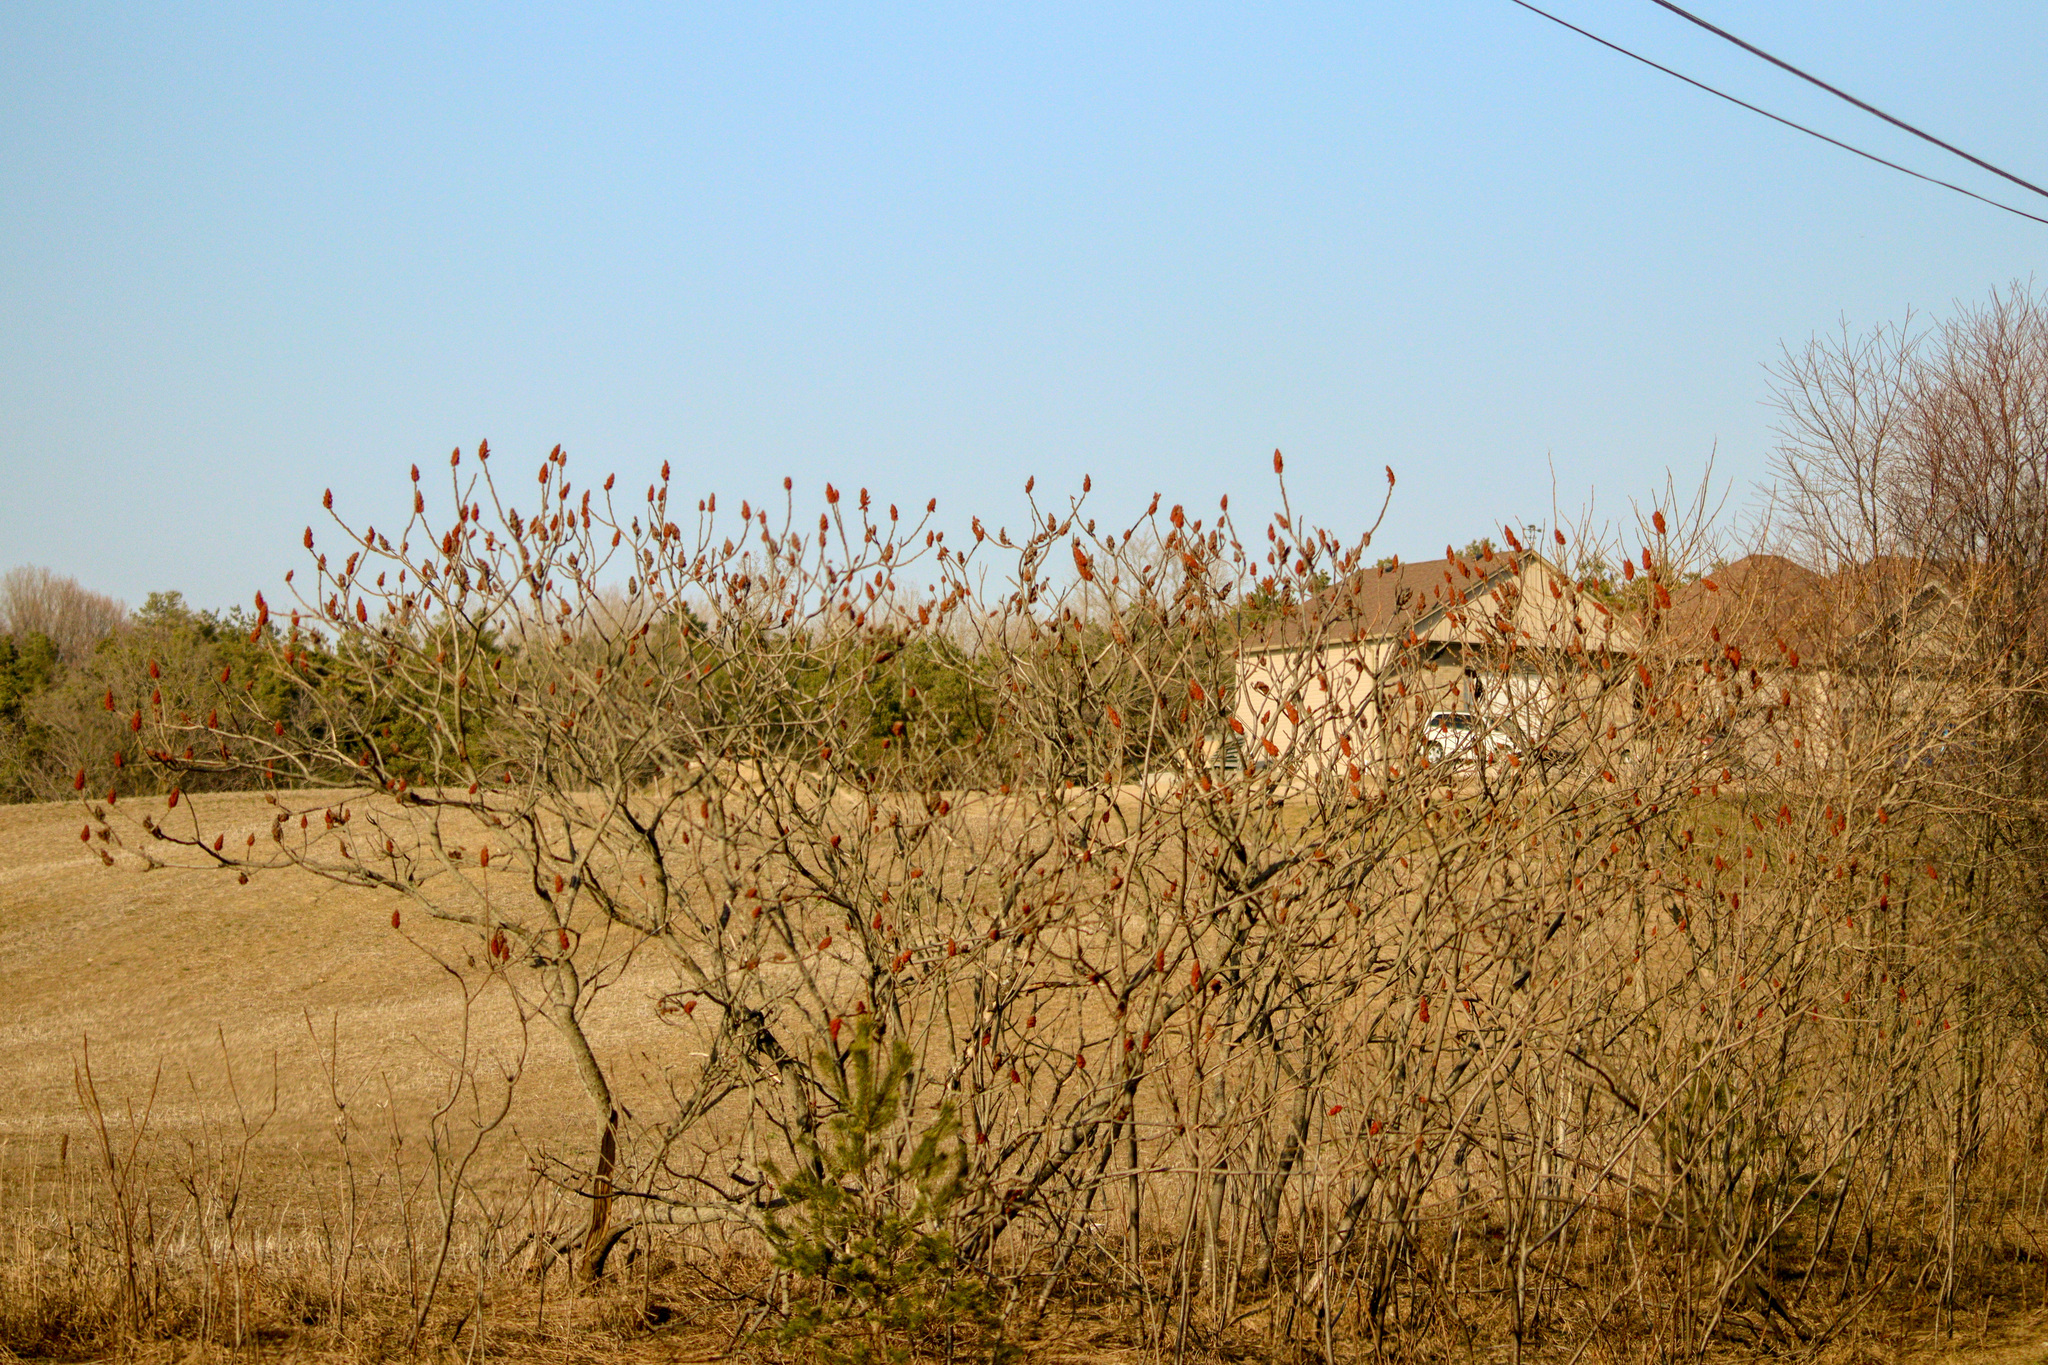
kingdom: Plantae
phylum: Tracheophyta
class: Magnoliopsida
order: Sapindales
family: Anacardiaceae
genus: Rhus
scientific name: Rhus typhina
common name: Staghorn sumac
